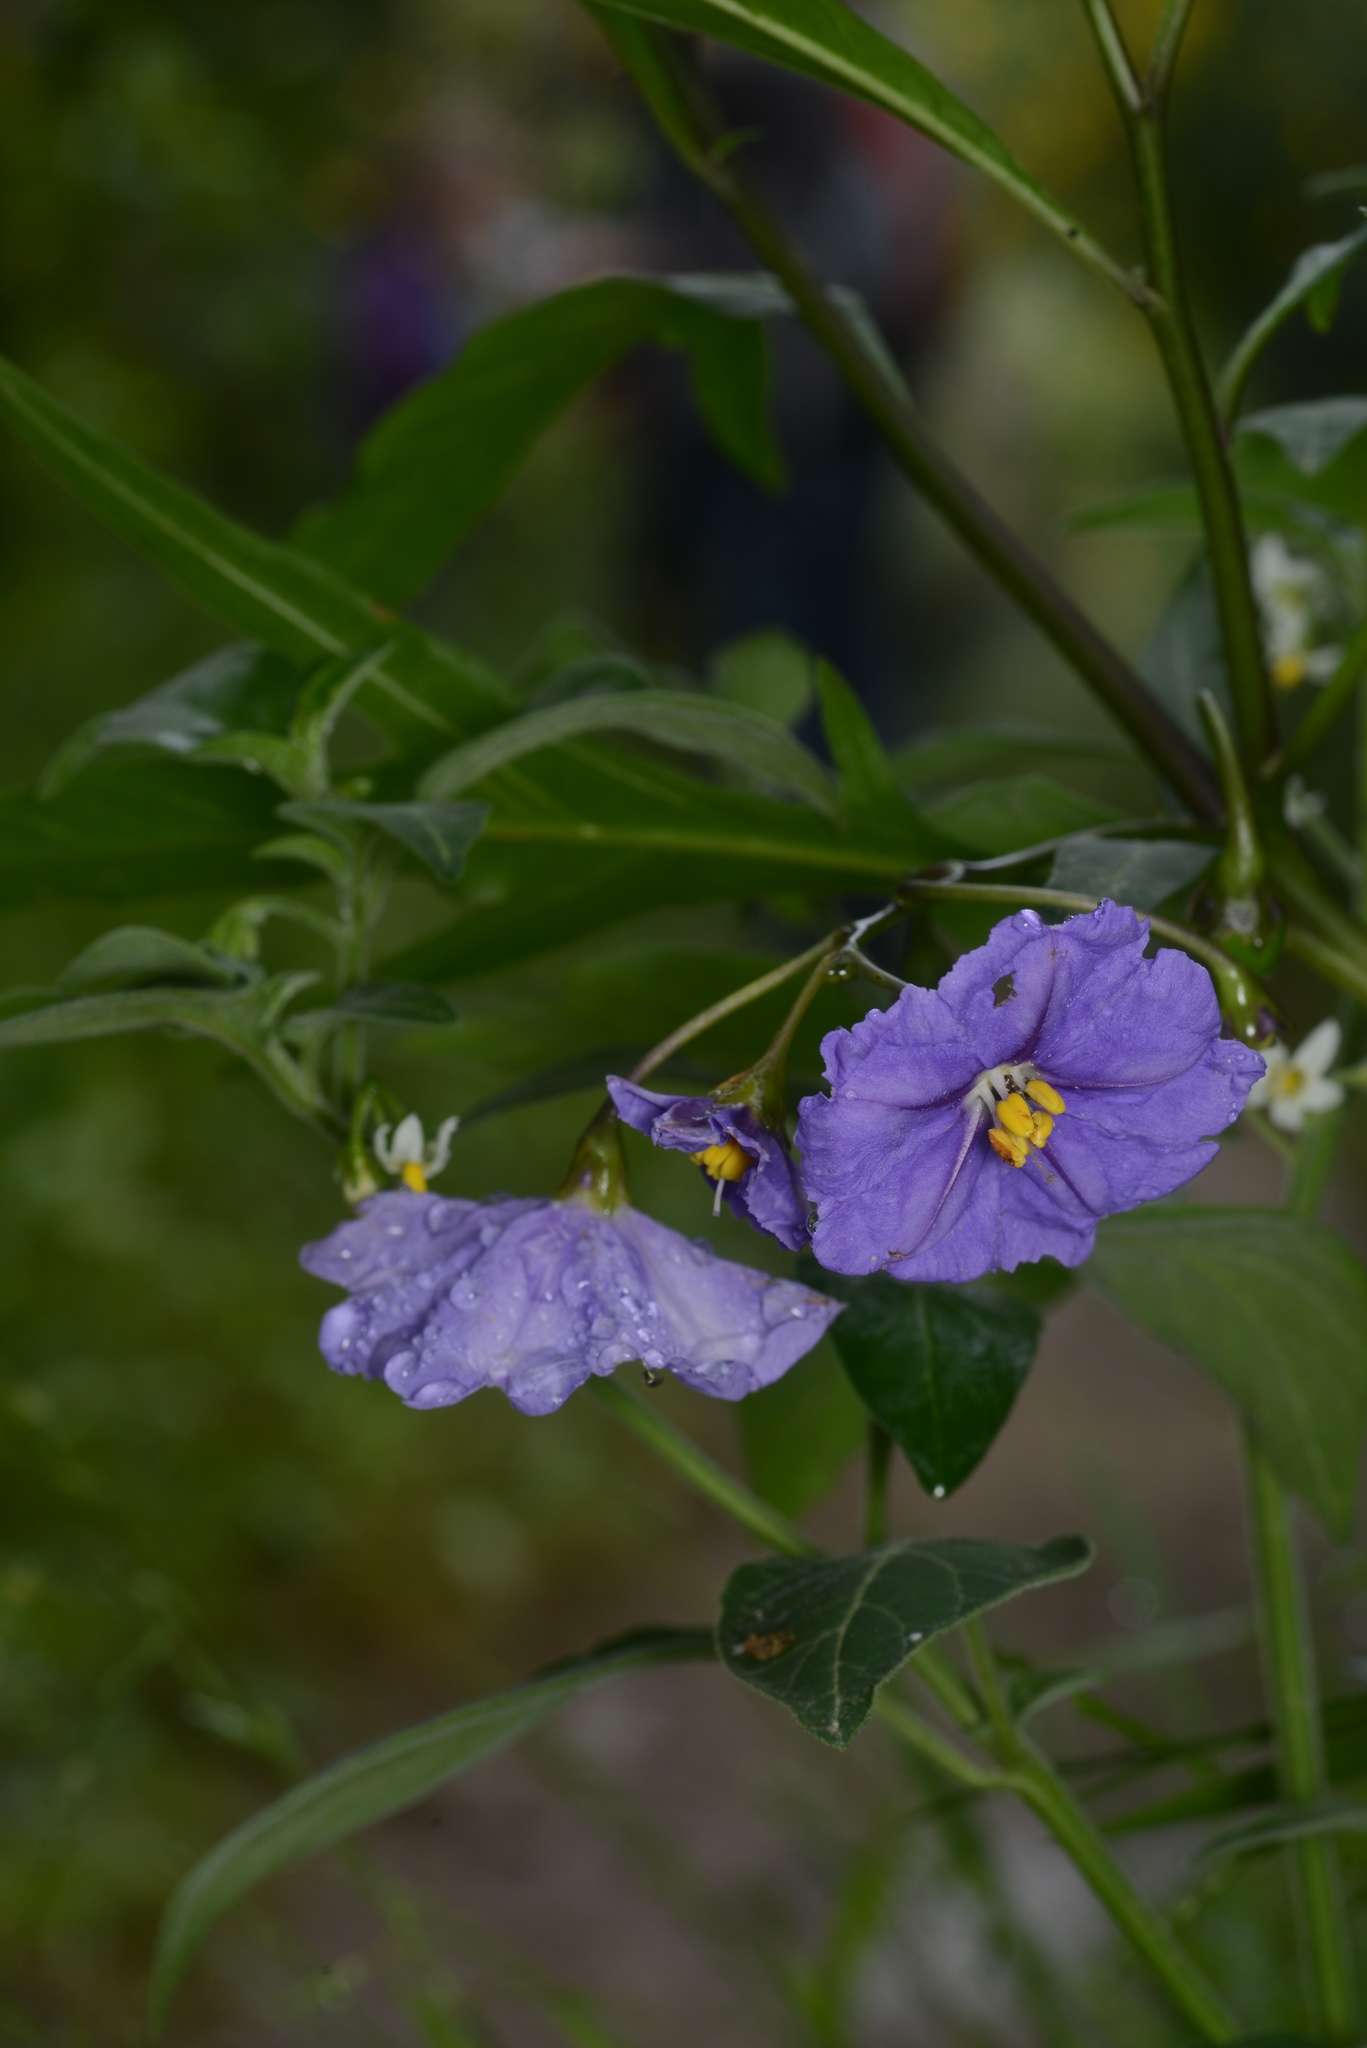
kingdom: Plantae
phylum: Tracheophyta
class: Magnoliopsida
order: Solanales
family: Solanaceae
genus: Solanum
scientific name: Solanum laciniatum
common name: Kangaroo-apple
